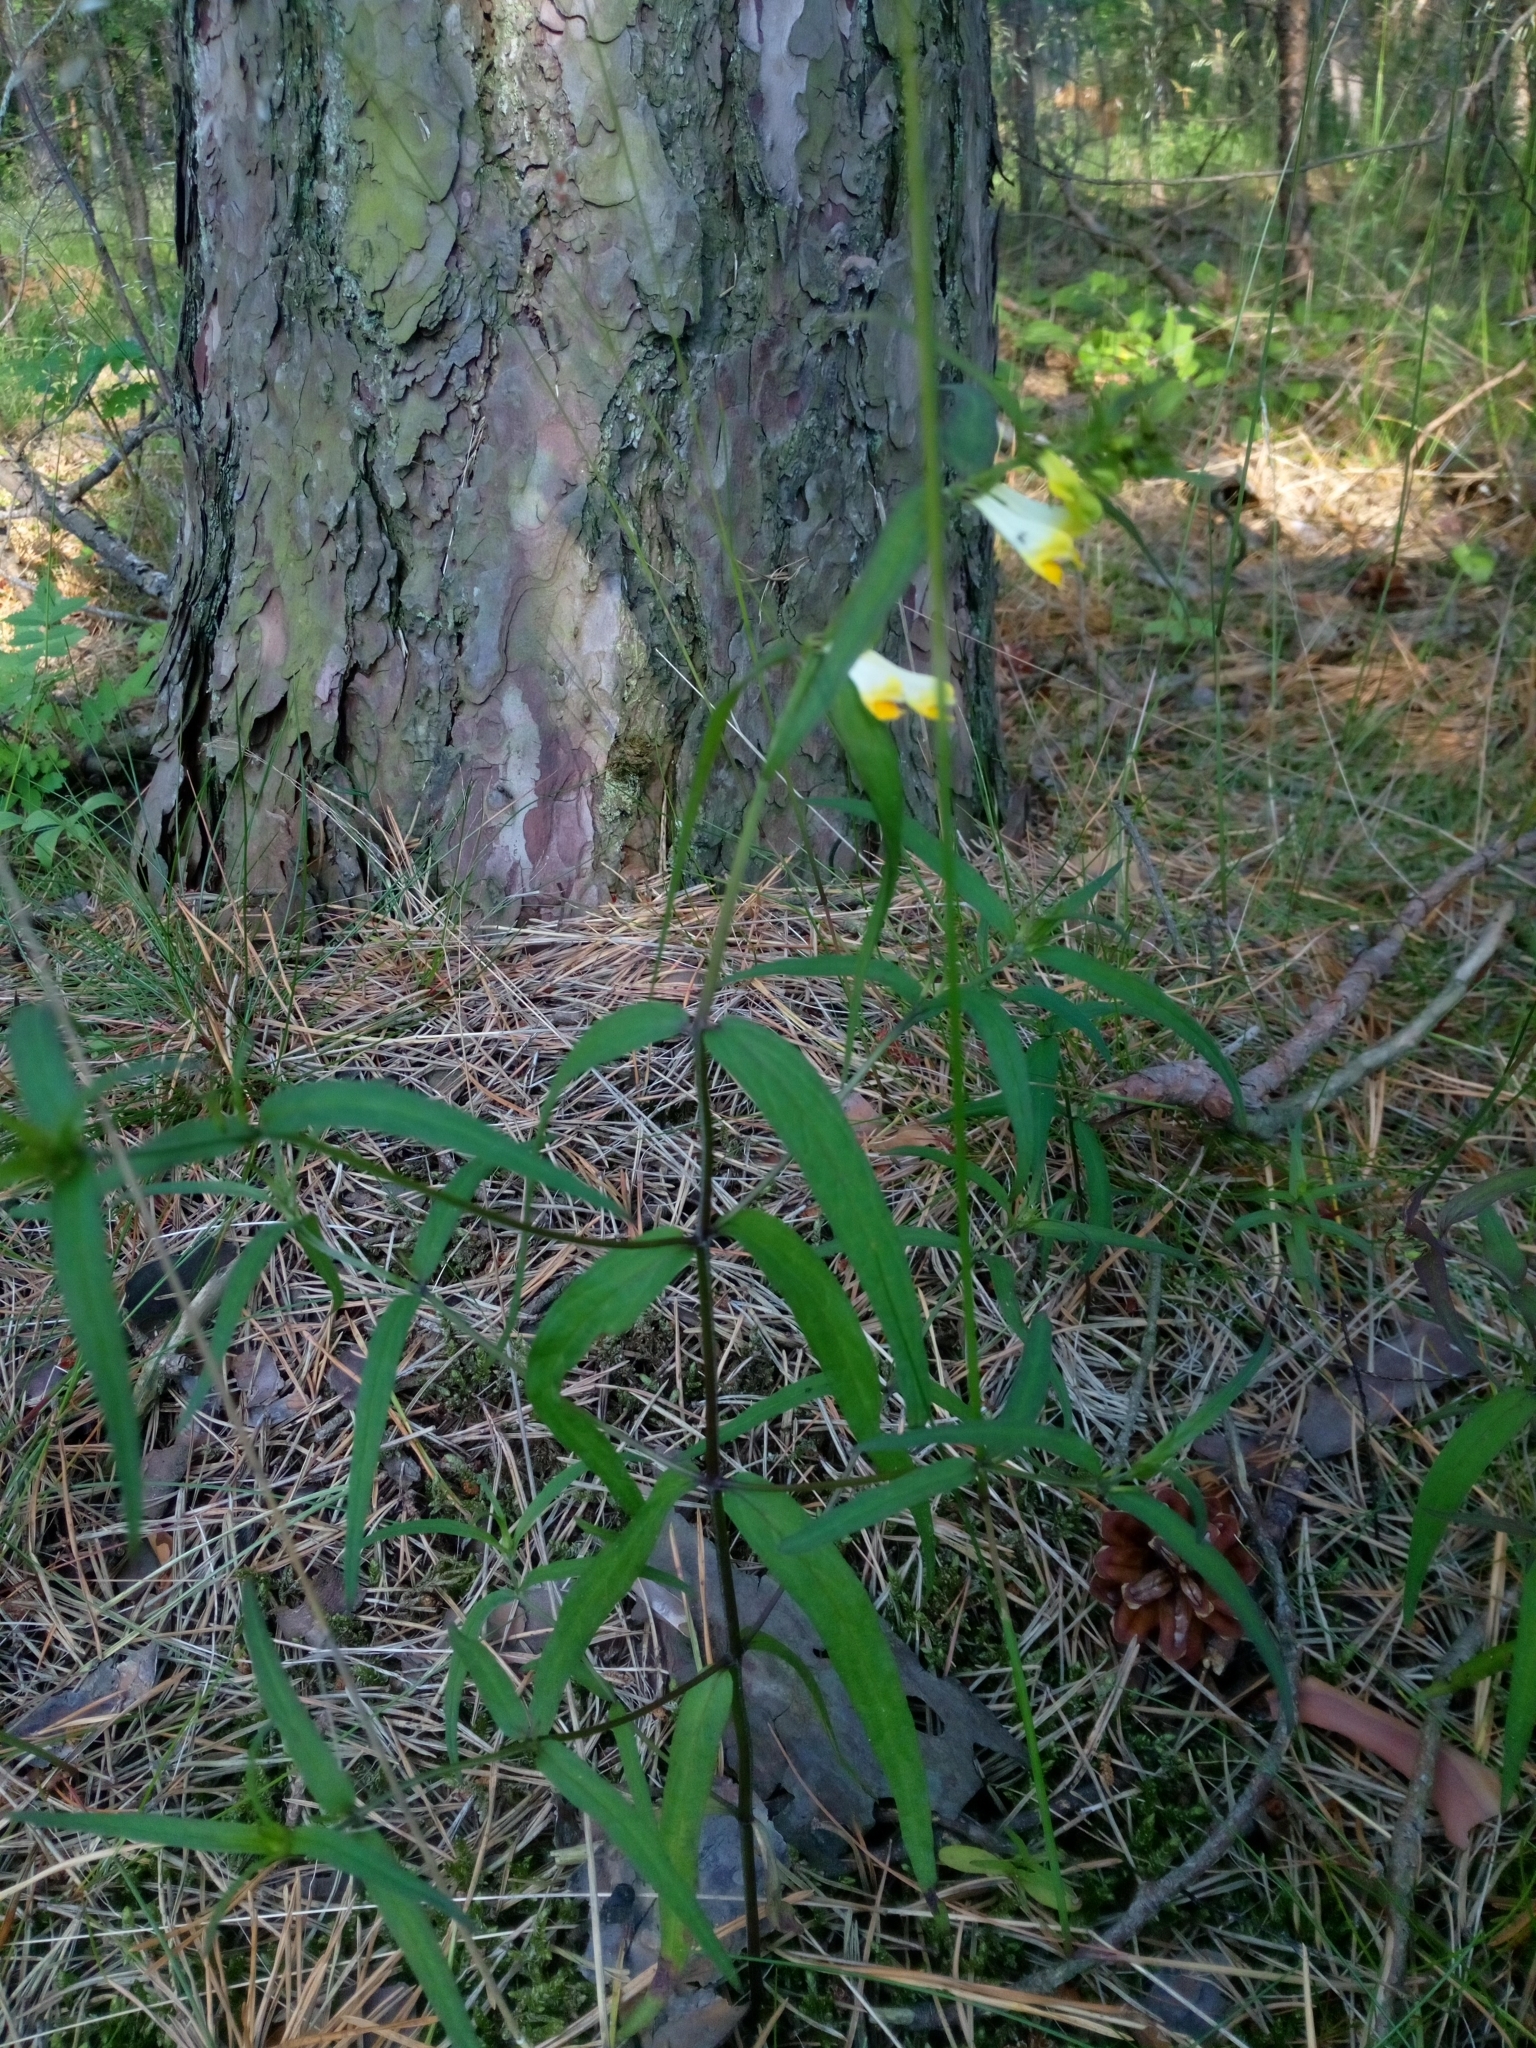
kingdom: Plantae
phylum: Tracheophyta
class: Magnoliopsida
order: Lamiales
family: Orobanchaceae
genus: Melampyrum
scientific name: Melampyrum pratense
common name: Common cow-wheat
